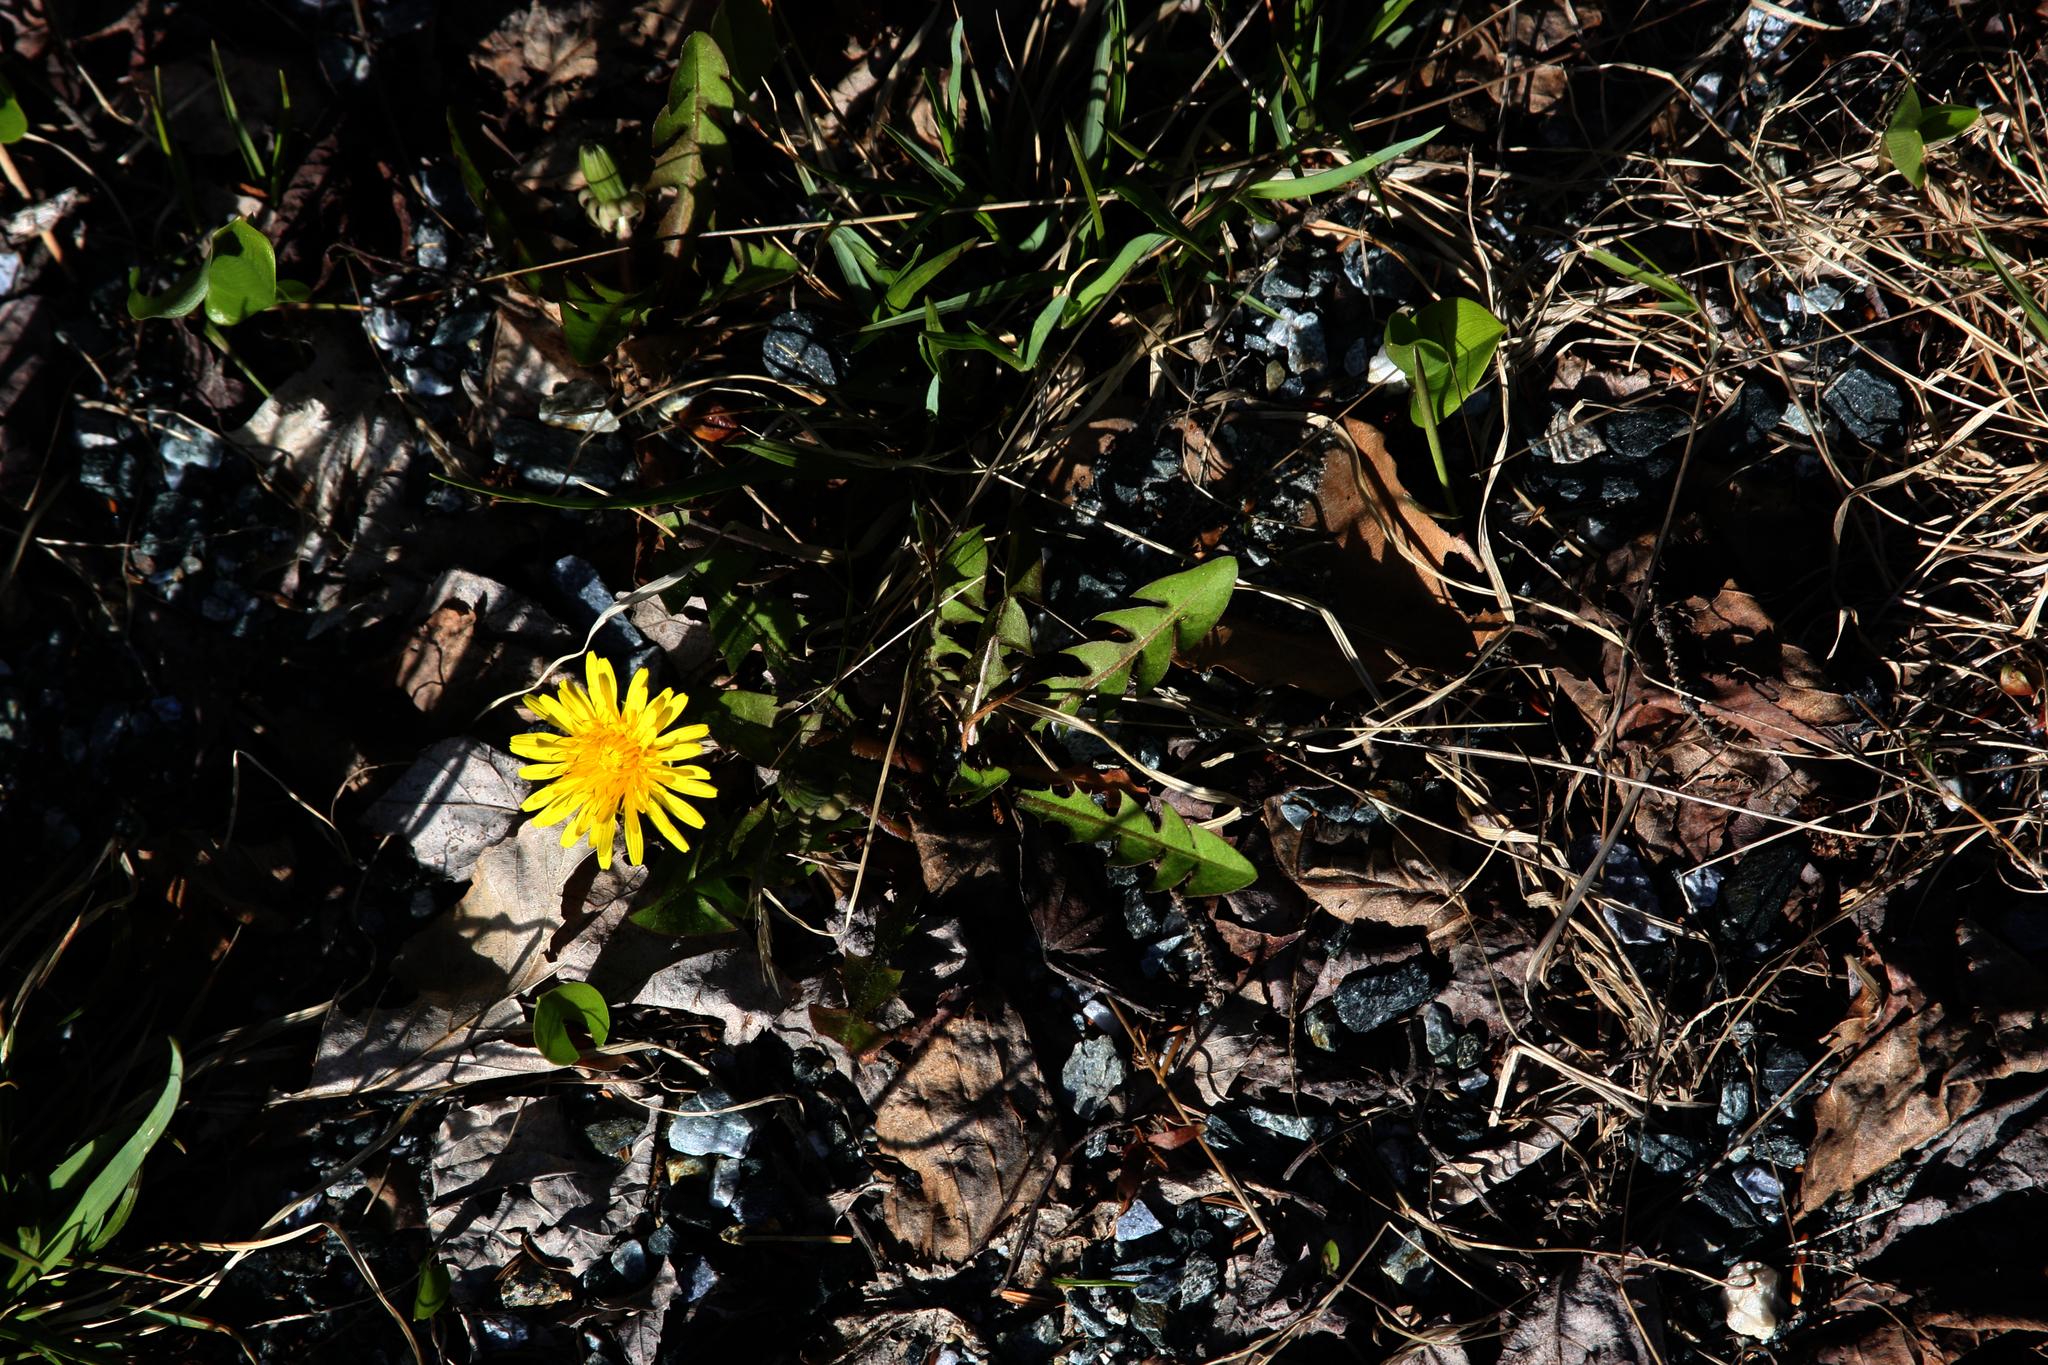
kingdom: Plantae
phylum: Tracheophyta
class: Magnoliopsida
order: Asterales
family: Asteraceae
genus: Taraxacum
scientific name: Taraxacum officinale
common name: Common dandelion
